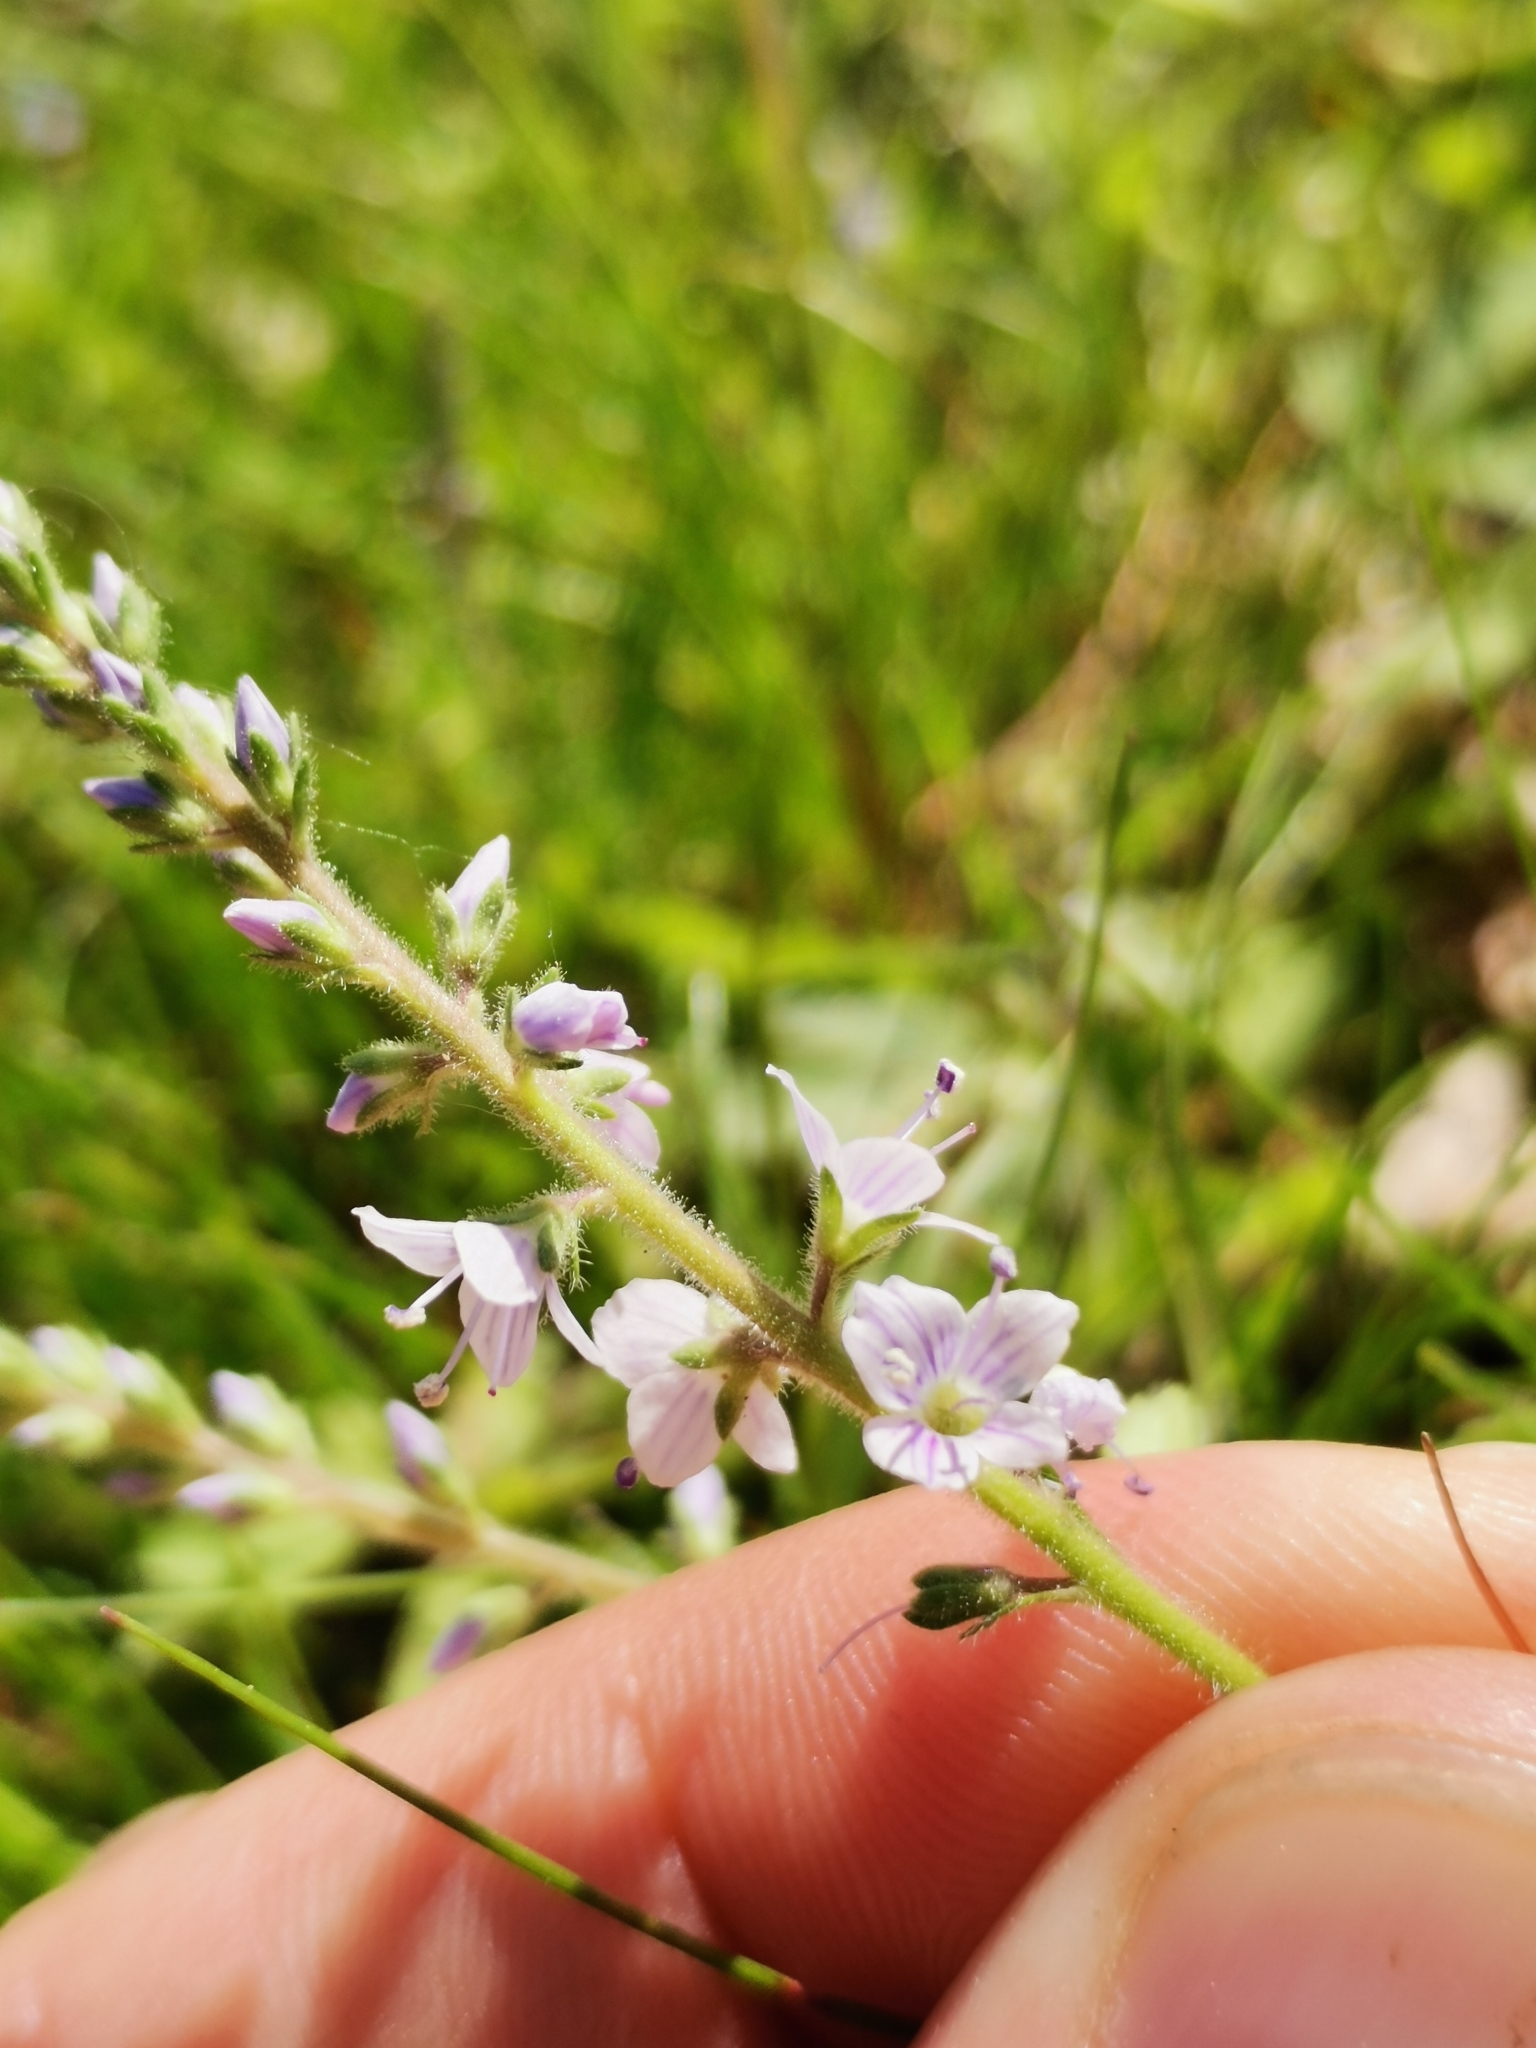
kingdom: Plantae
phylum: Tracheophyta
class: Magnoliopsida
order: Lamiales
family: Plantaginaceae
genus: Veronica
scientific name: Veronica officinalis
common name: Common speedwell
